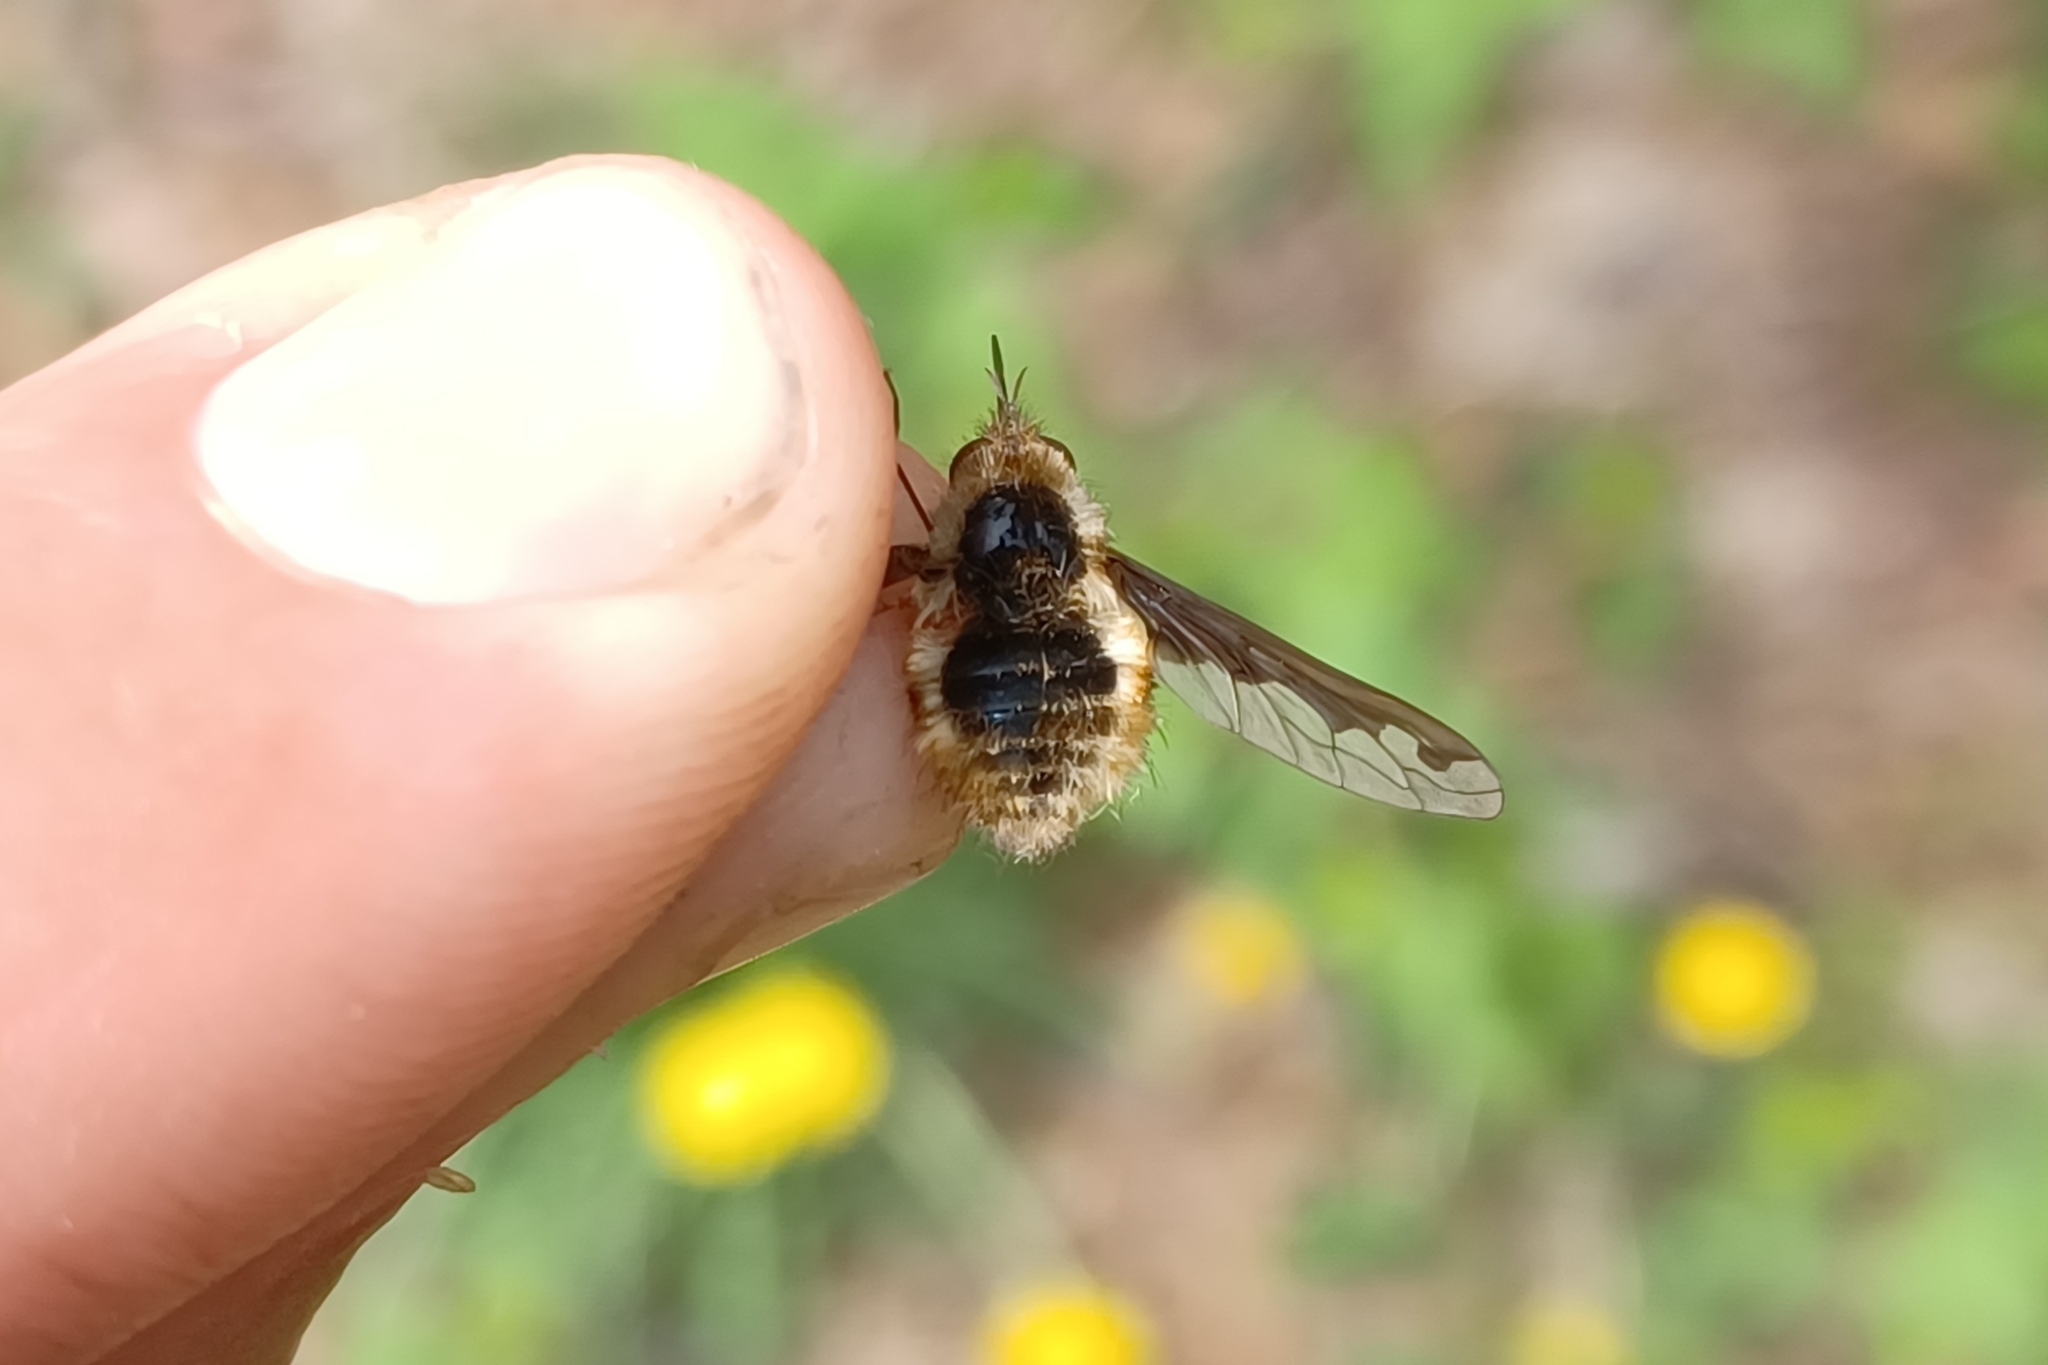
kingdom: Animalia
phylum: Arthropoda
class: Insecta
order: Diptera
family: Bombyliidae
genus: Bombylius
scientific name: Bombylius major
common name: Bee fly
